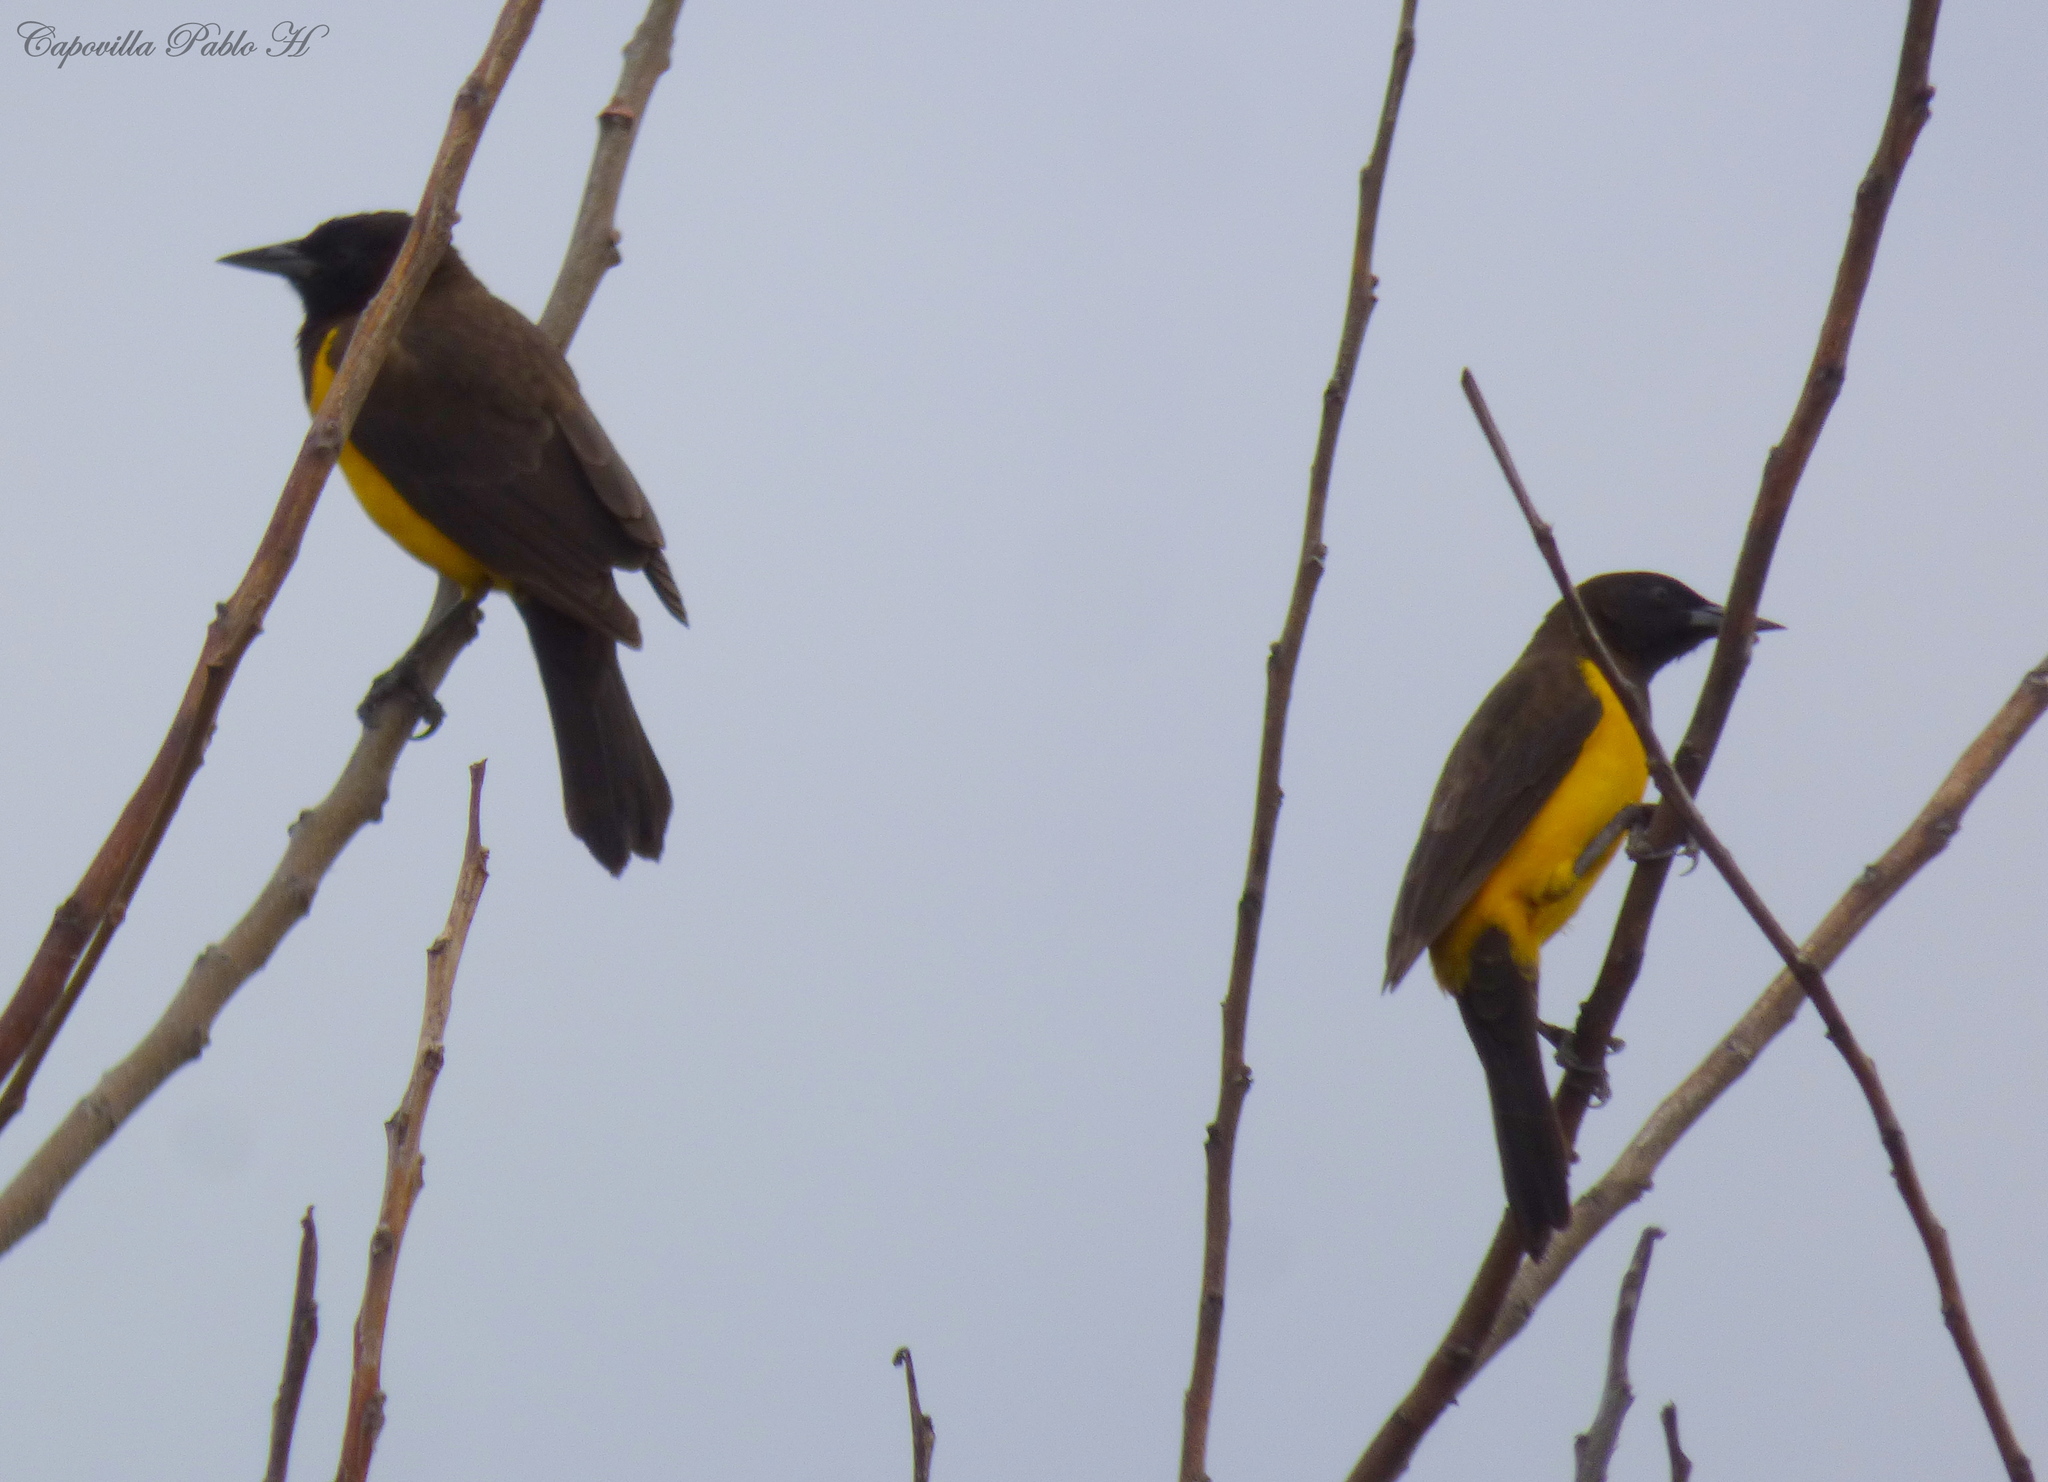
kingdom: Animalia
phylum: Chordata
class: Aves
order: Passeriformes
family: Icteridae
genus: Pseudoleistes
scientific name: Pseudoleistes guirahuro
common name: Yellow-rumped marshbird
